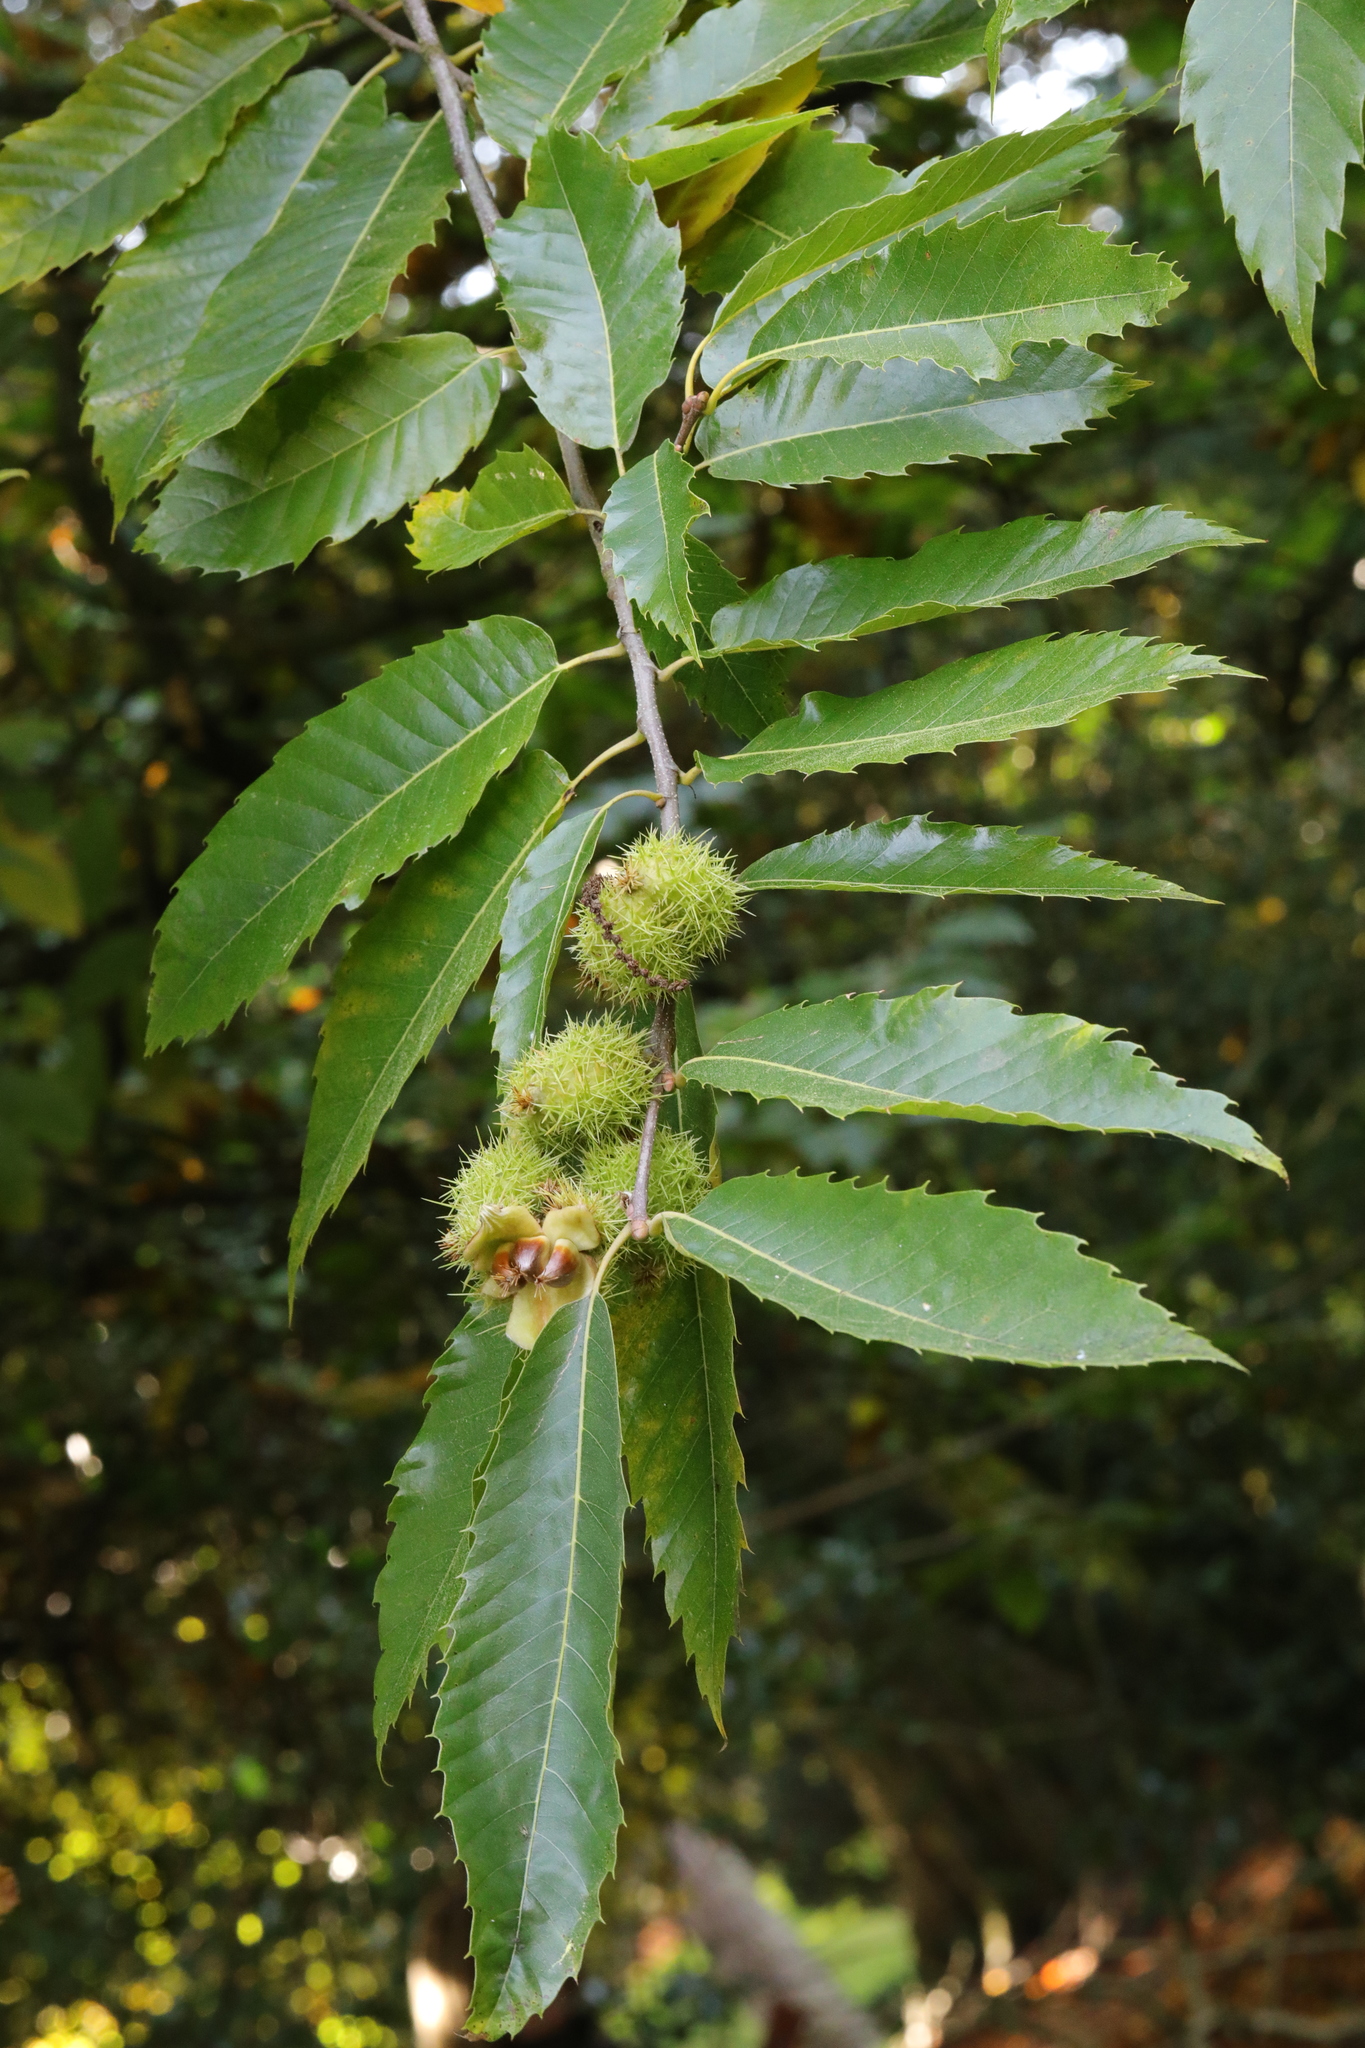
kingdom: Plantae
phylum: Tracheophyta
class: Magnoliopsida
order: Fagales
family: Fagaceae
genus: Castanea
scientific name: Castanea sativa
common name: Sweet chestnut
